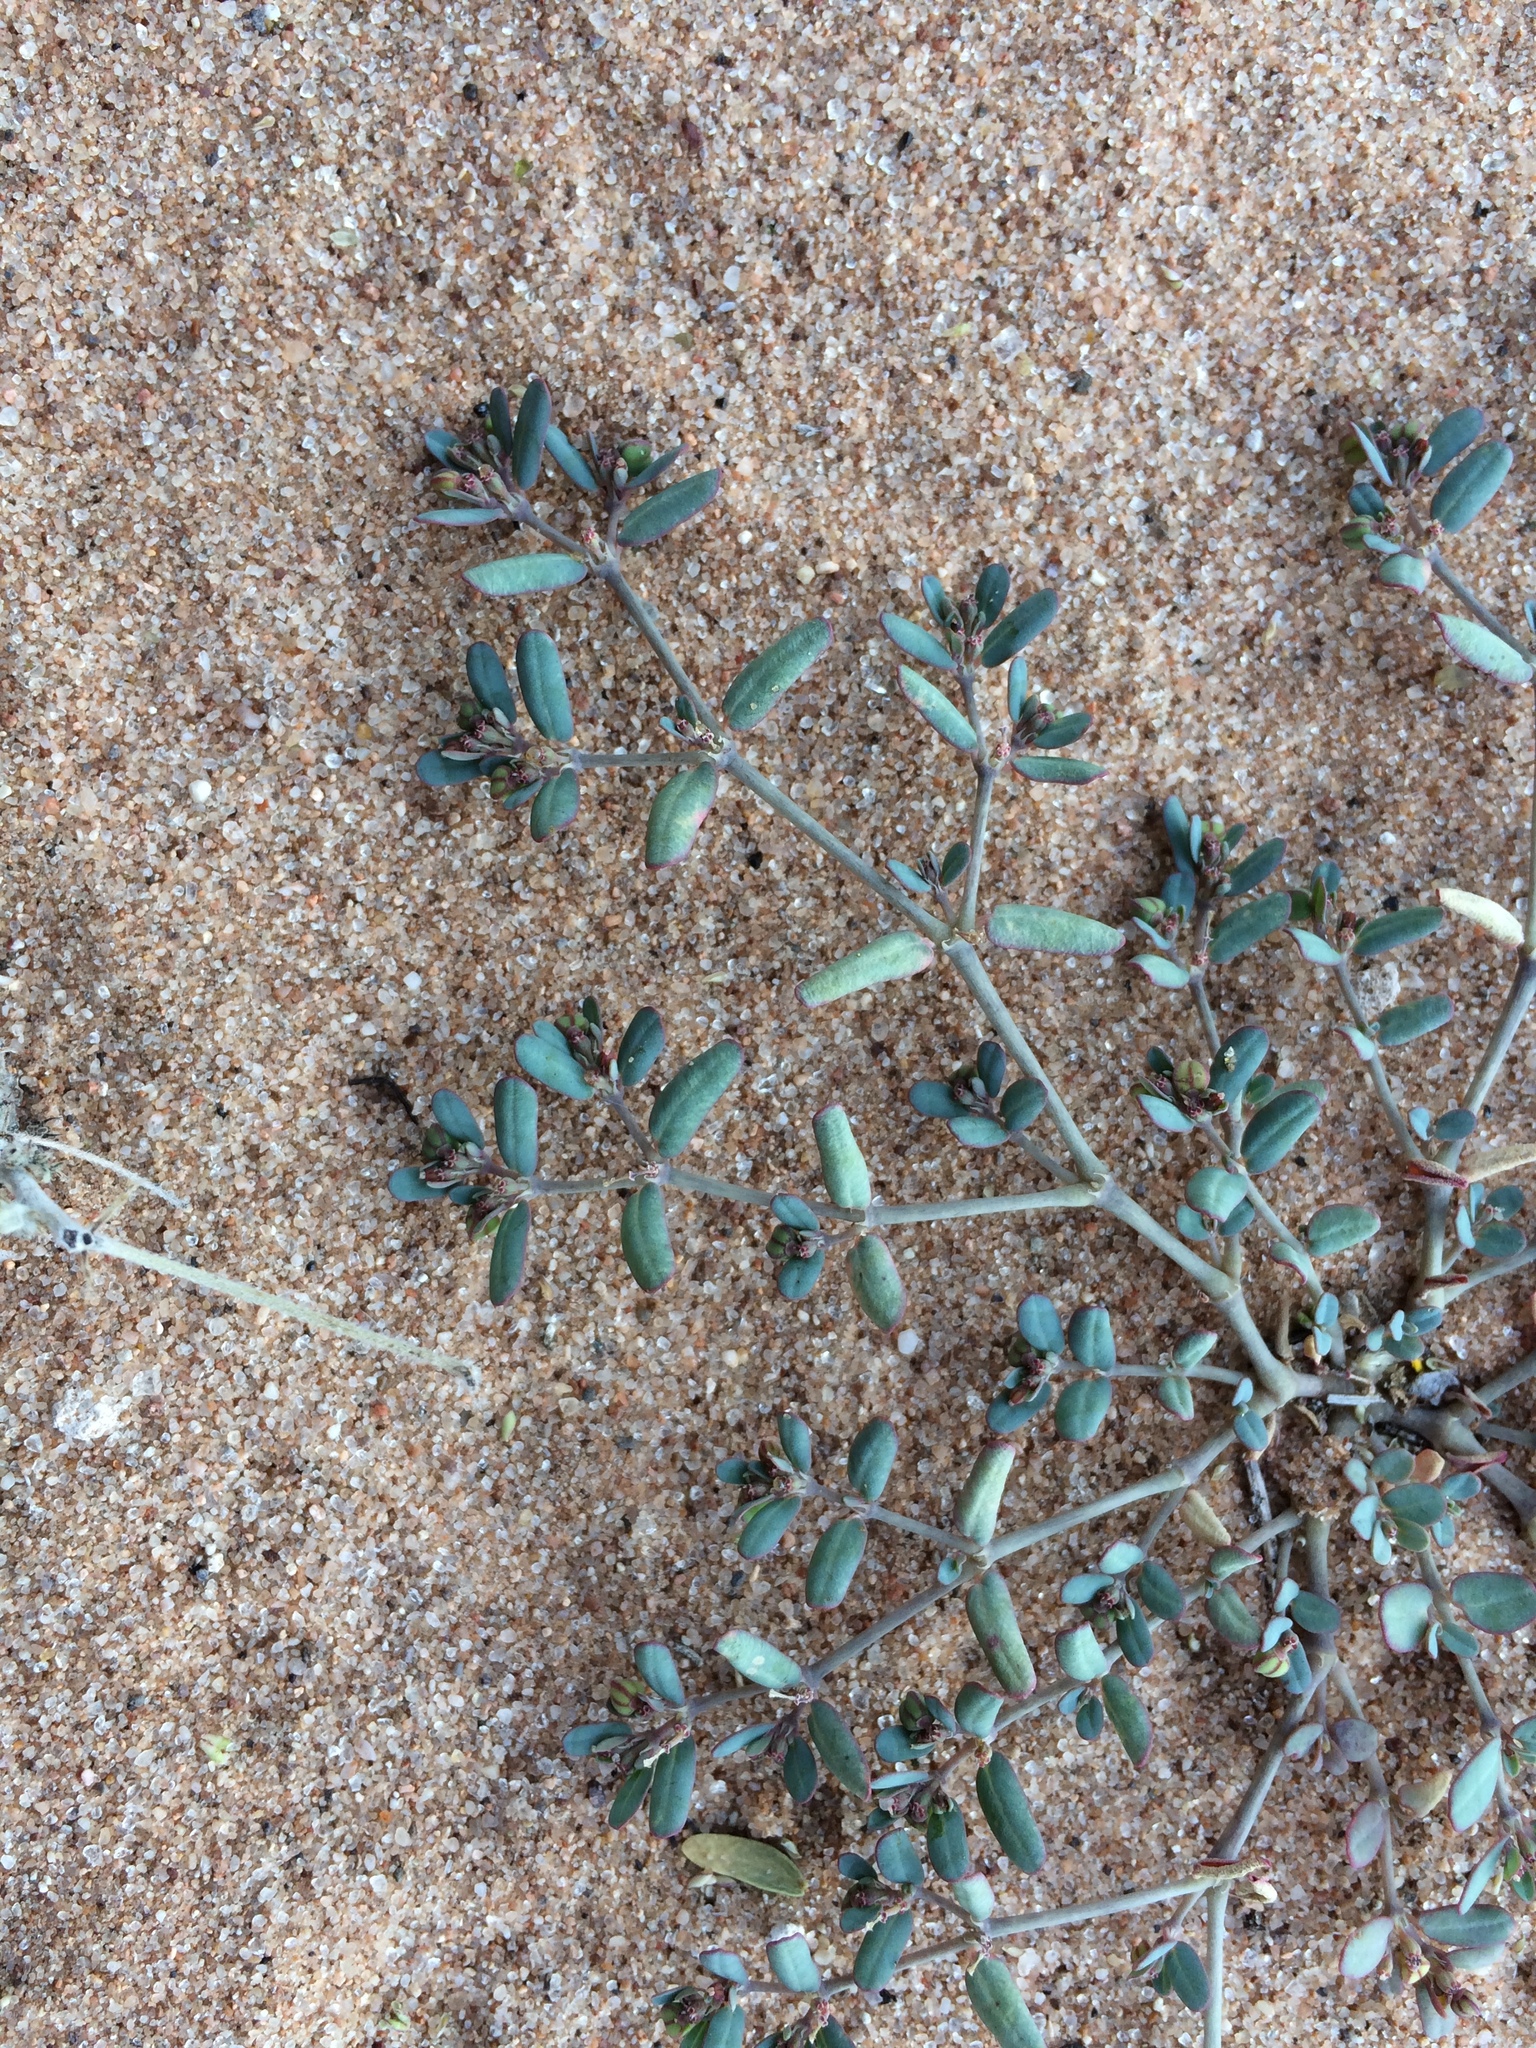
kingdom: Plantae
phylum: Tracheophyta
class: Magnoliopsida
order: Malpighiales
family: Euphorbiaceae
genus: Euphorbia
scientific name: Euphorbia golondrina
